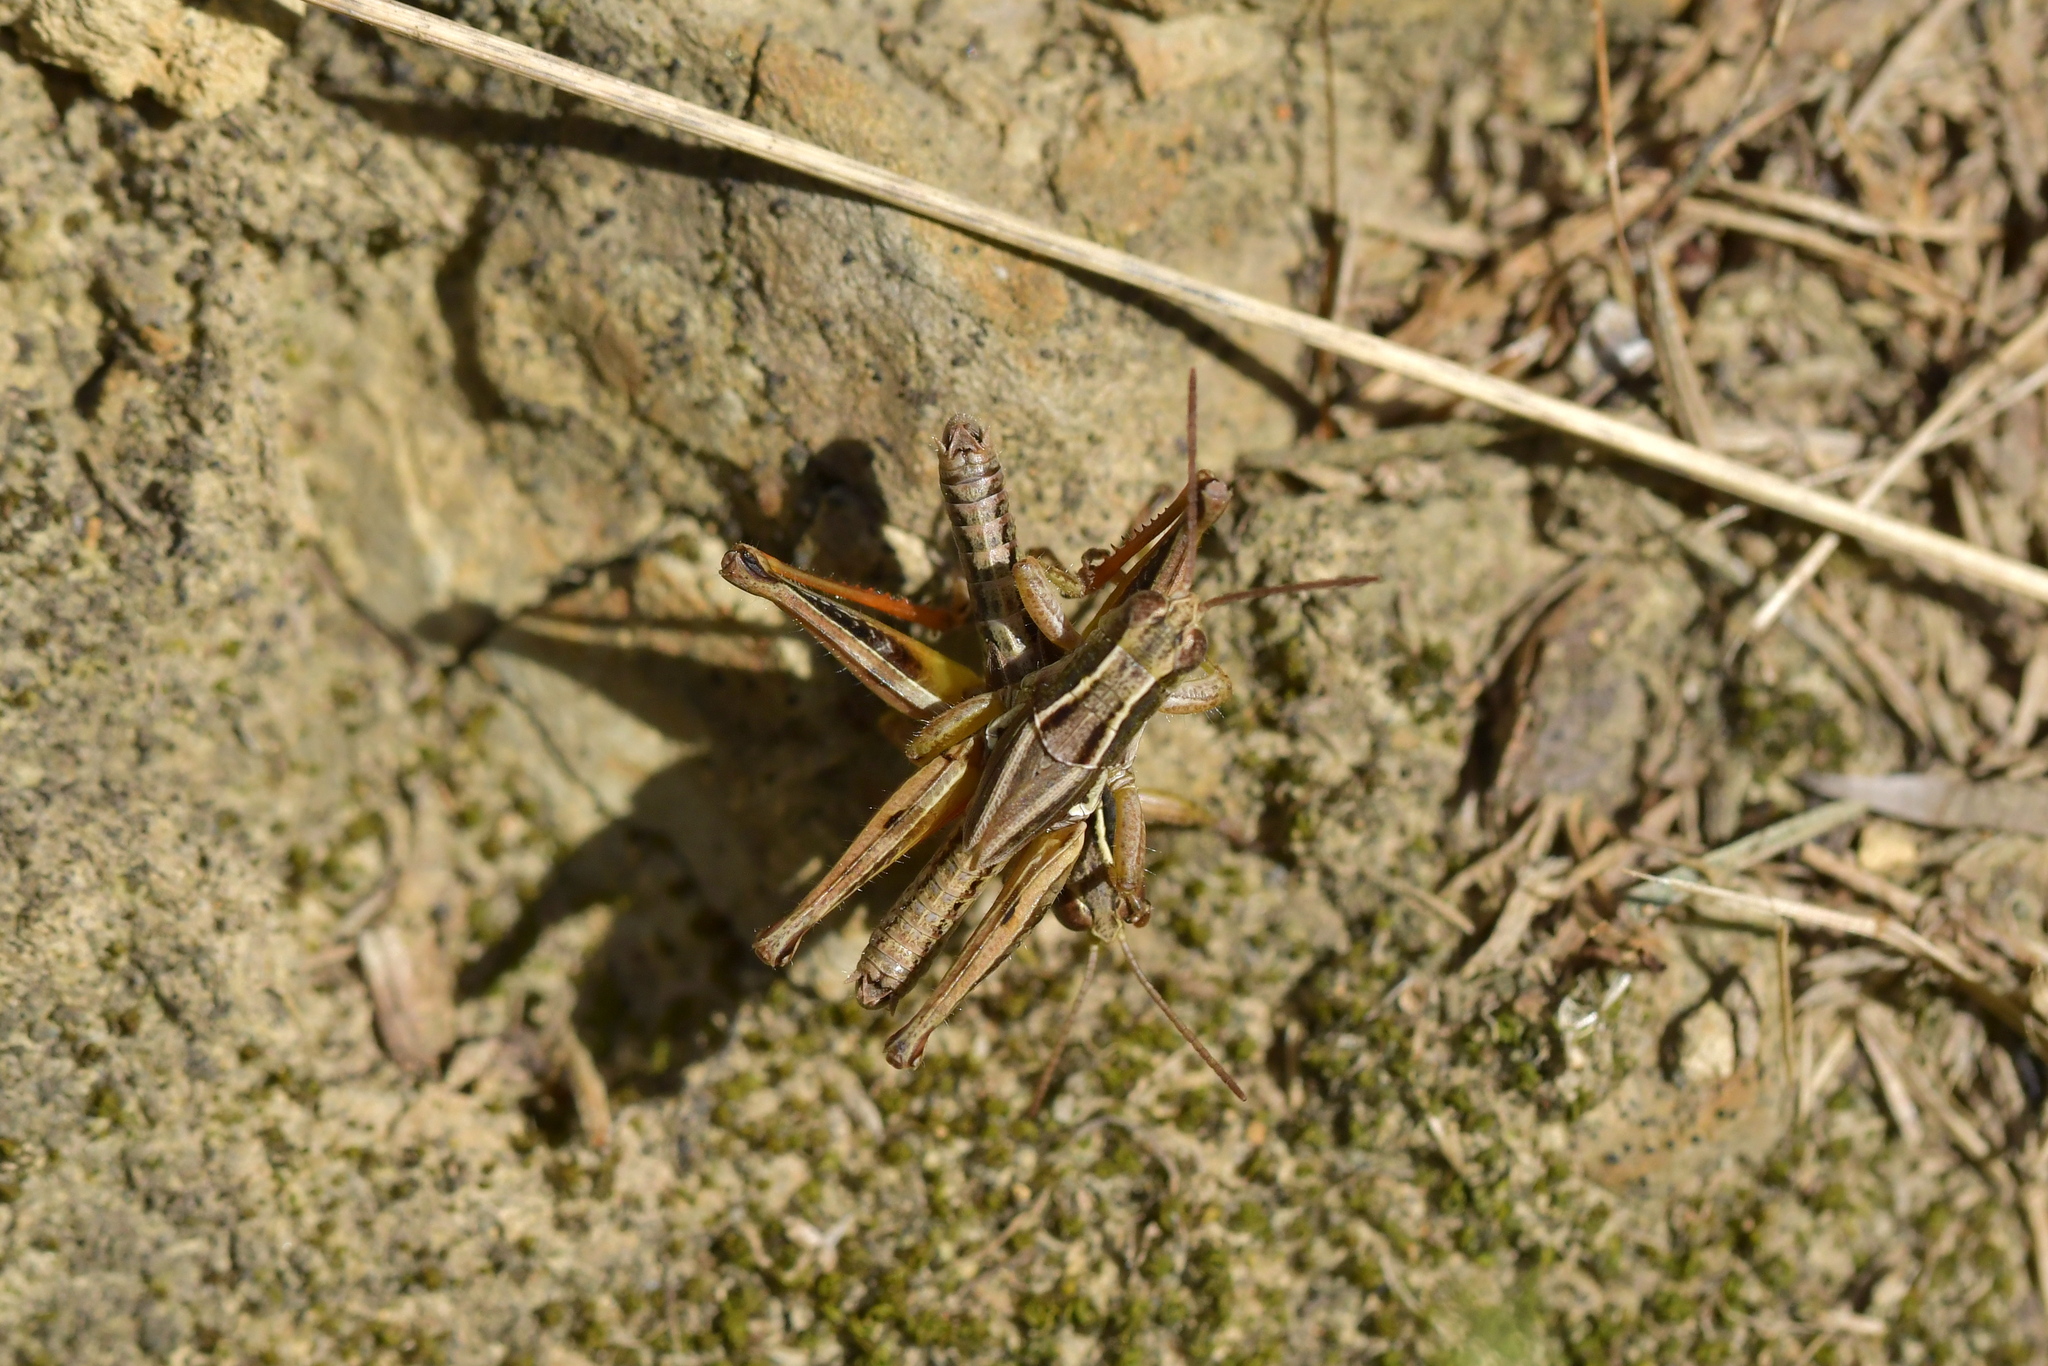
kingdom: Animalia
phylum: Arthropoda
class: Insecta
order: Orthoptera
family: Acrididae
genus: Phaulacridium
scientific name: Phaulacridium marginale
